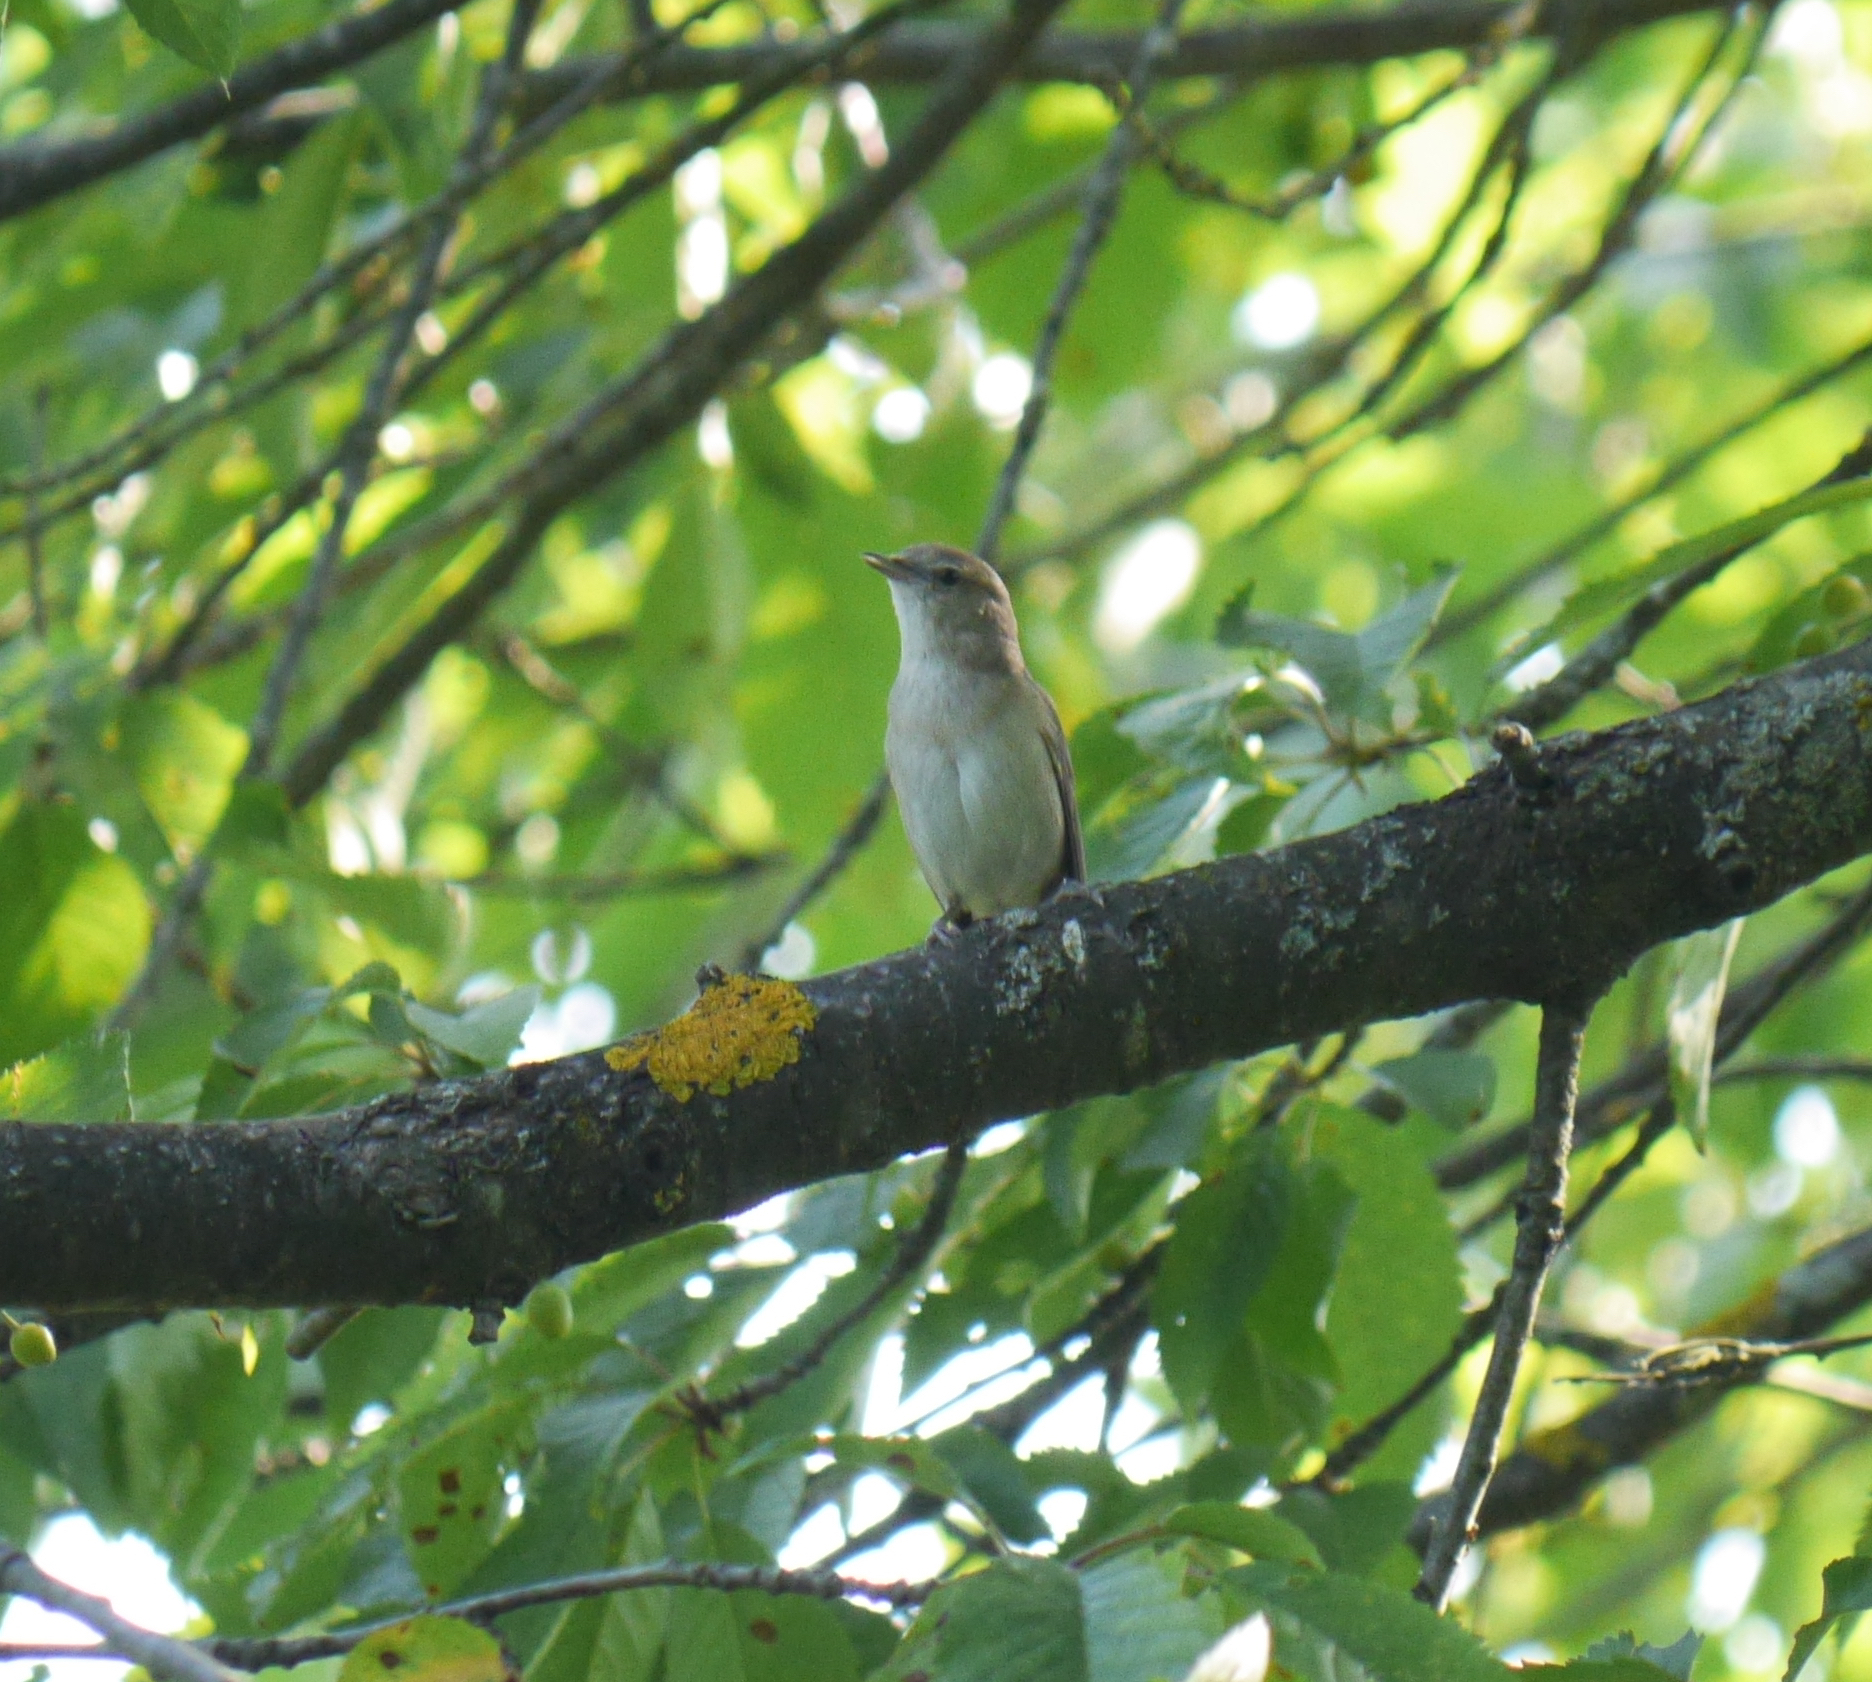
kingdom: Animalia
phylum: Chordata
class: Aves
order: Passeriformes
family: Sylviidae
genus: Sylvia
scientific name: Sylvia borin
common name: Garden warbler
